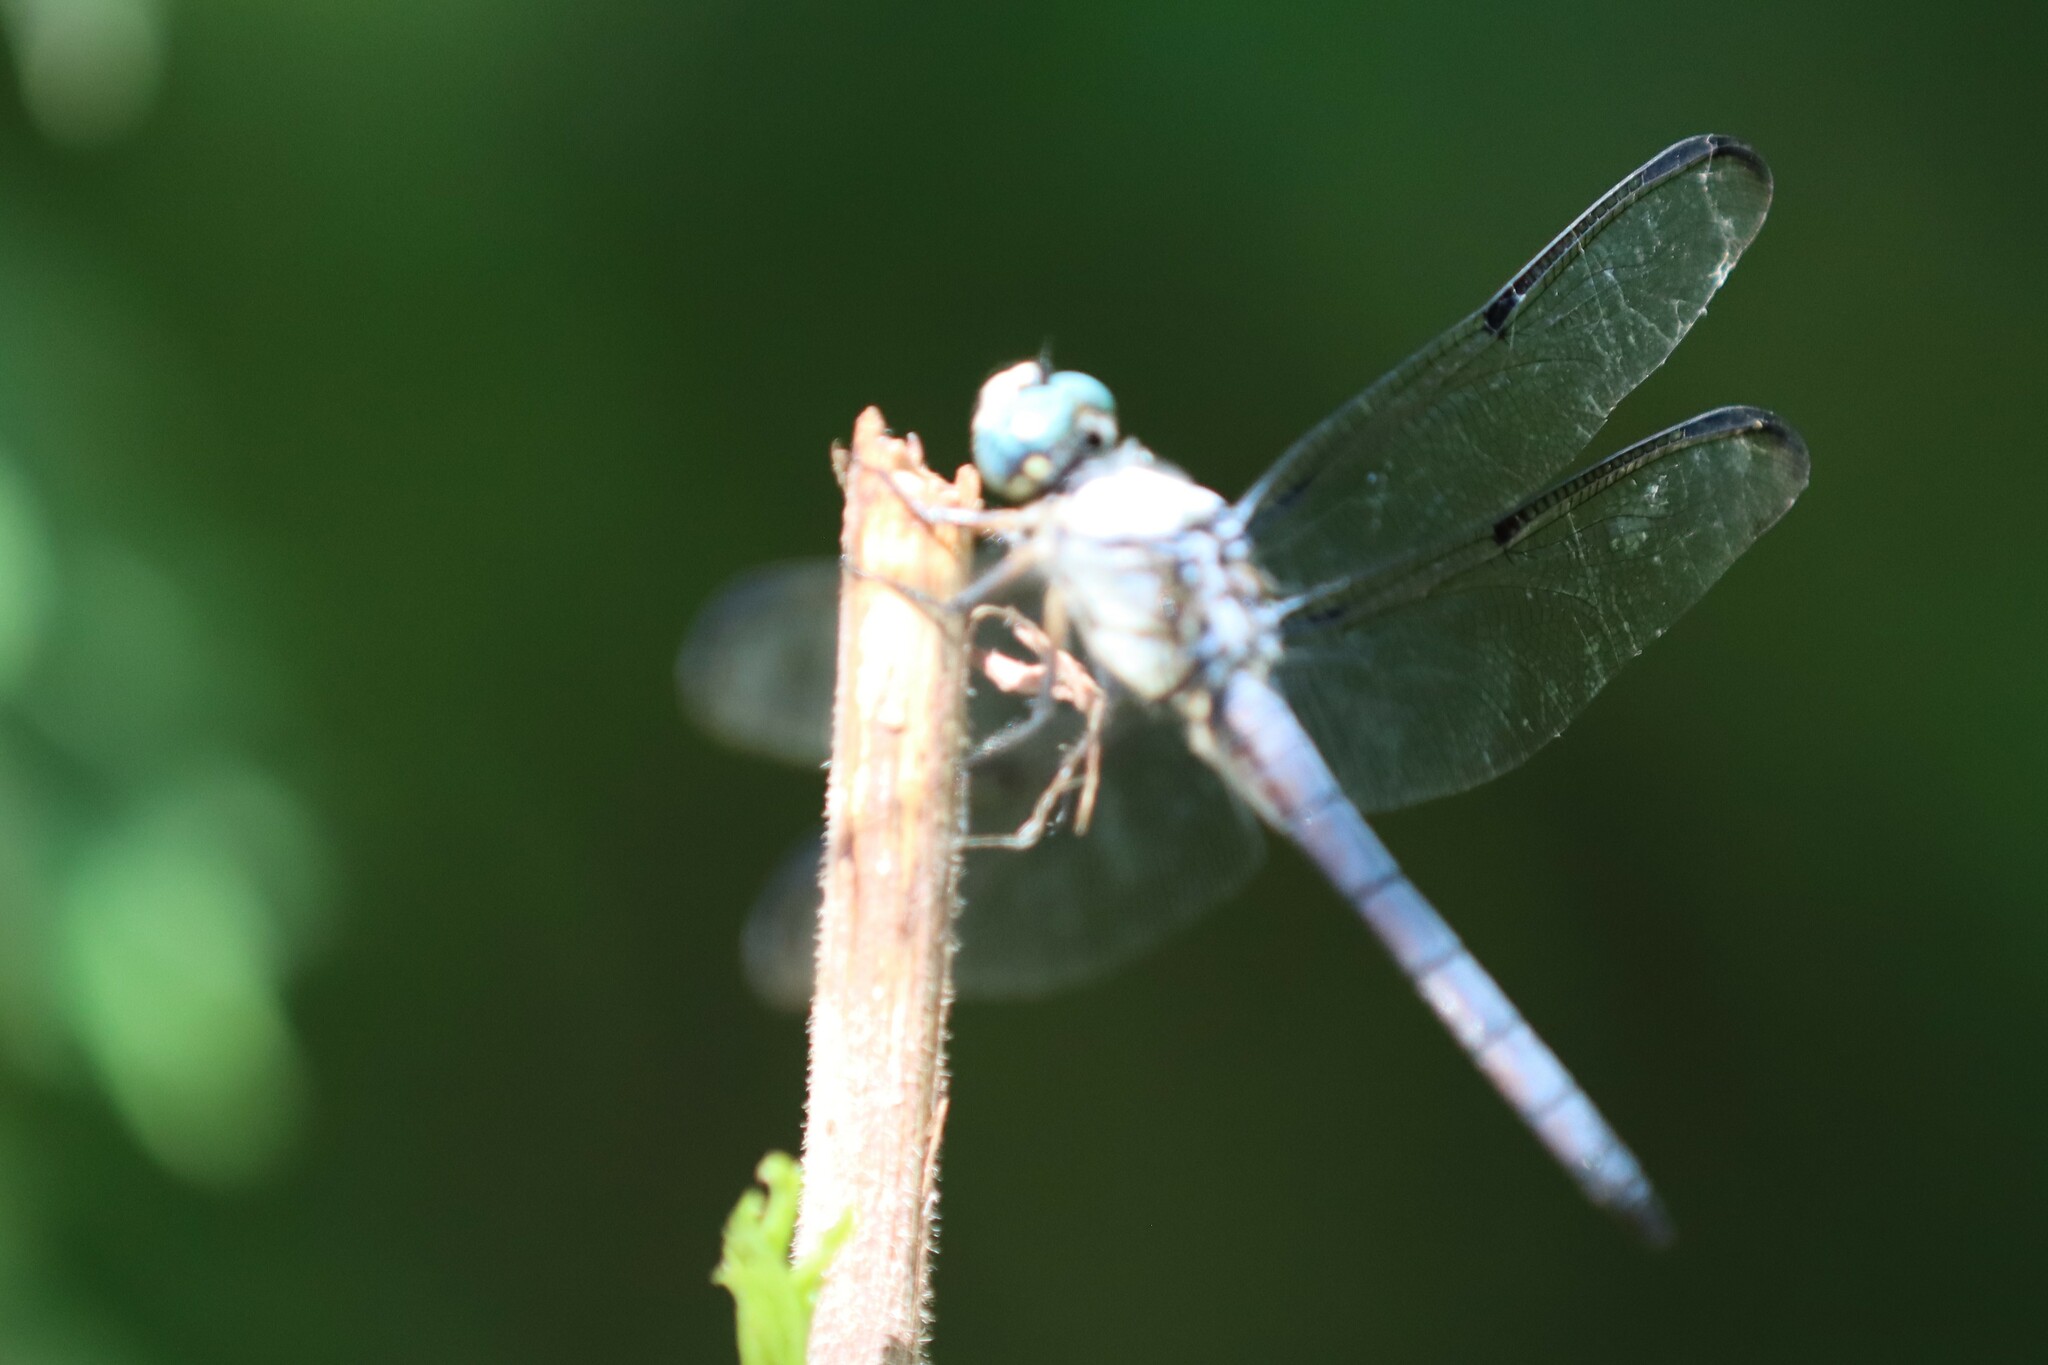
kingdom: Animalia
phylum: Arthropoda
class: Insecta
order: Odonata
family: Libellulidae
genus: Libellula
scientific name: Libellula vibrans
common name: Great blue skimmer
